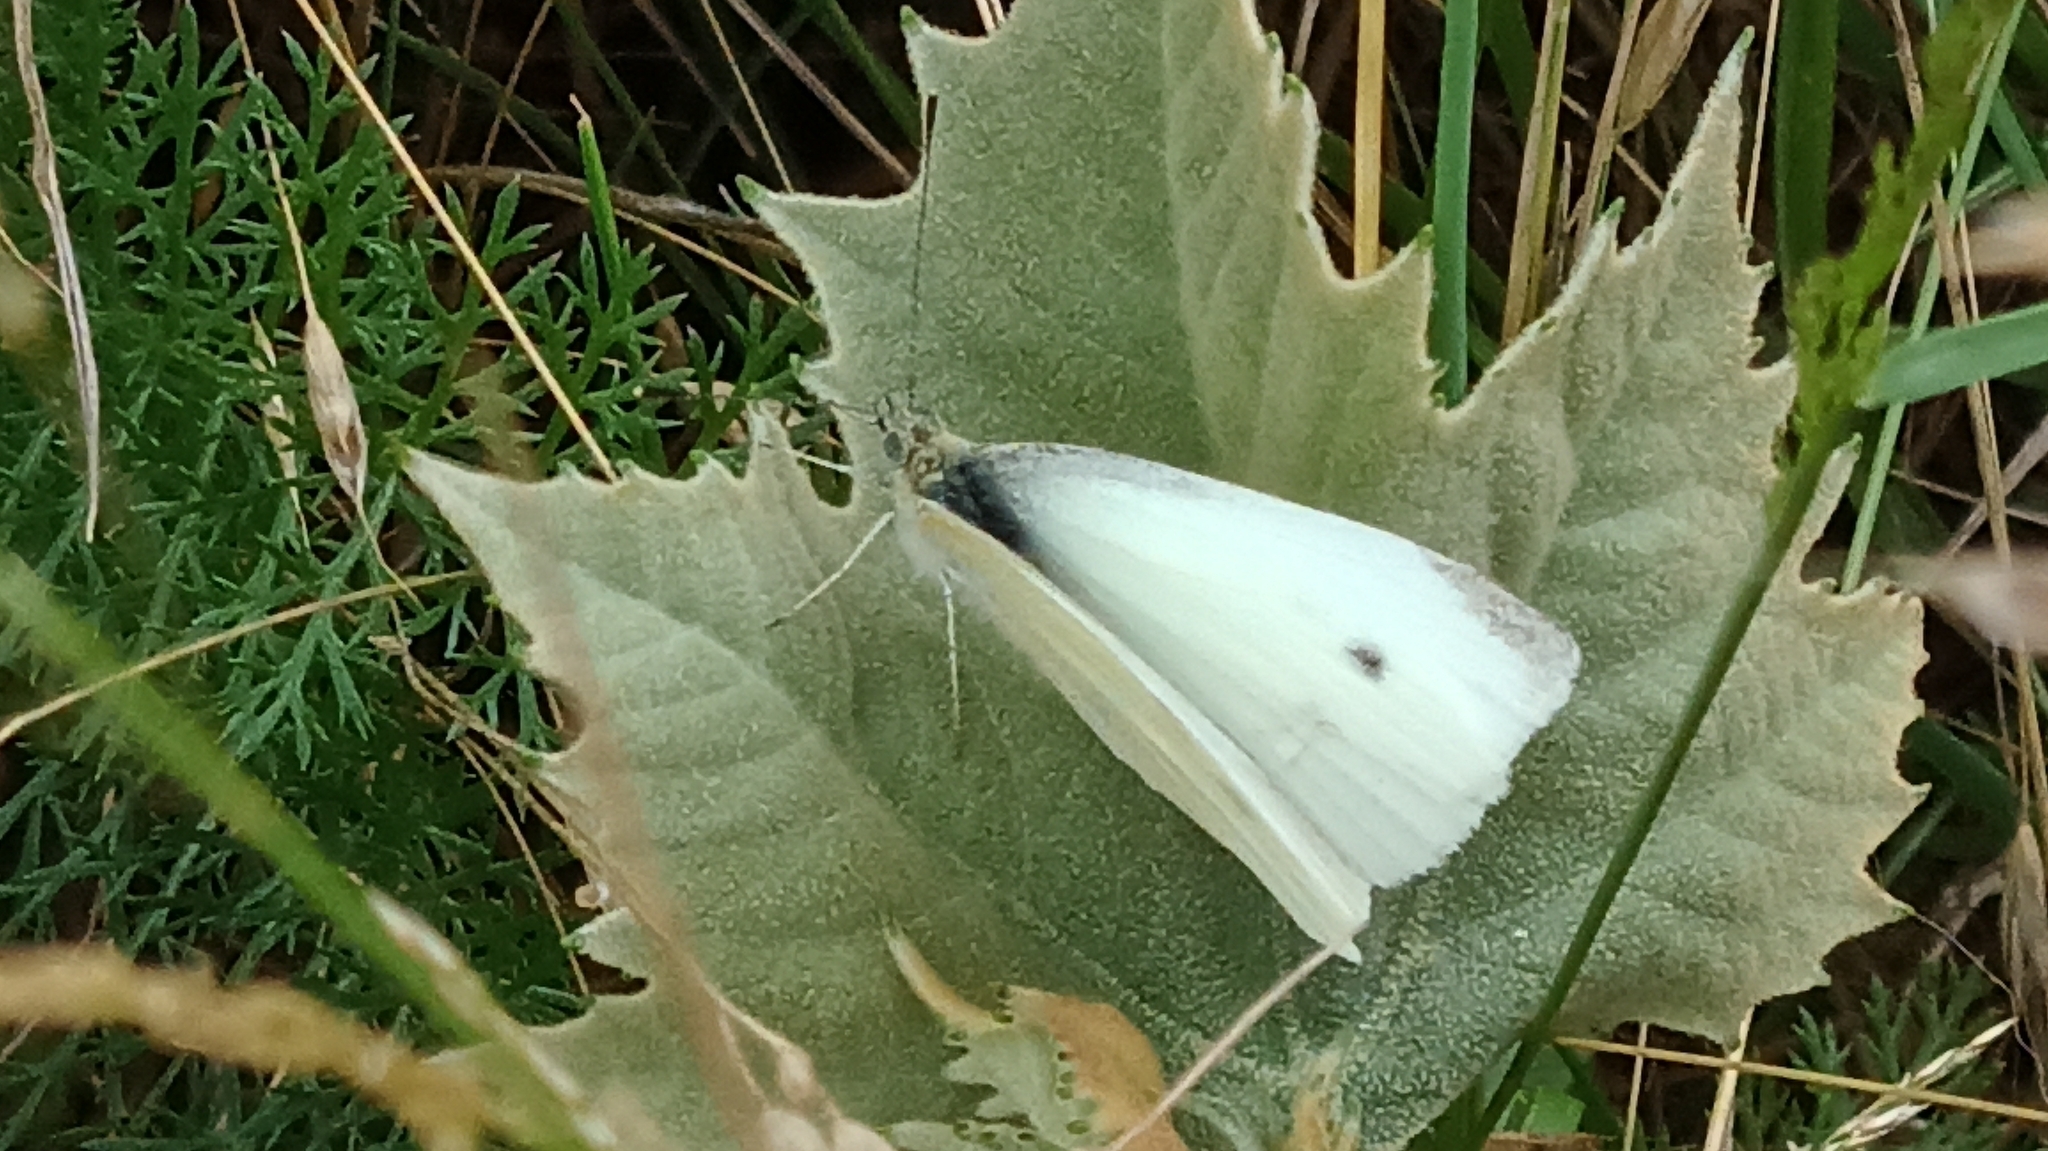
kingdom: Animalia
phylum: Arthropoda
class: Insecta
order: Lepidoptera
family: Pieridae
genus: Pieris
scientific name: Pieris rapae
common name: Small white
